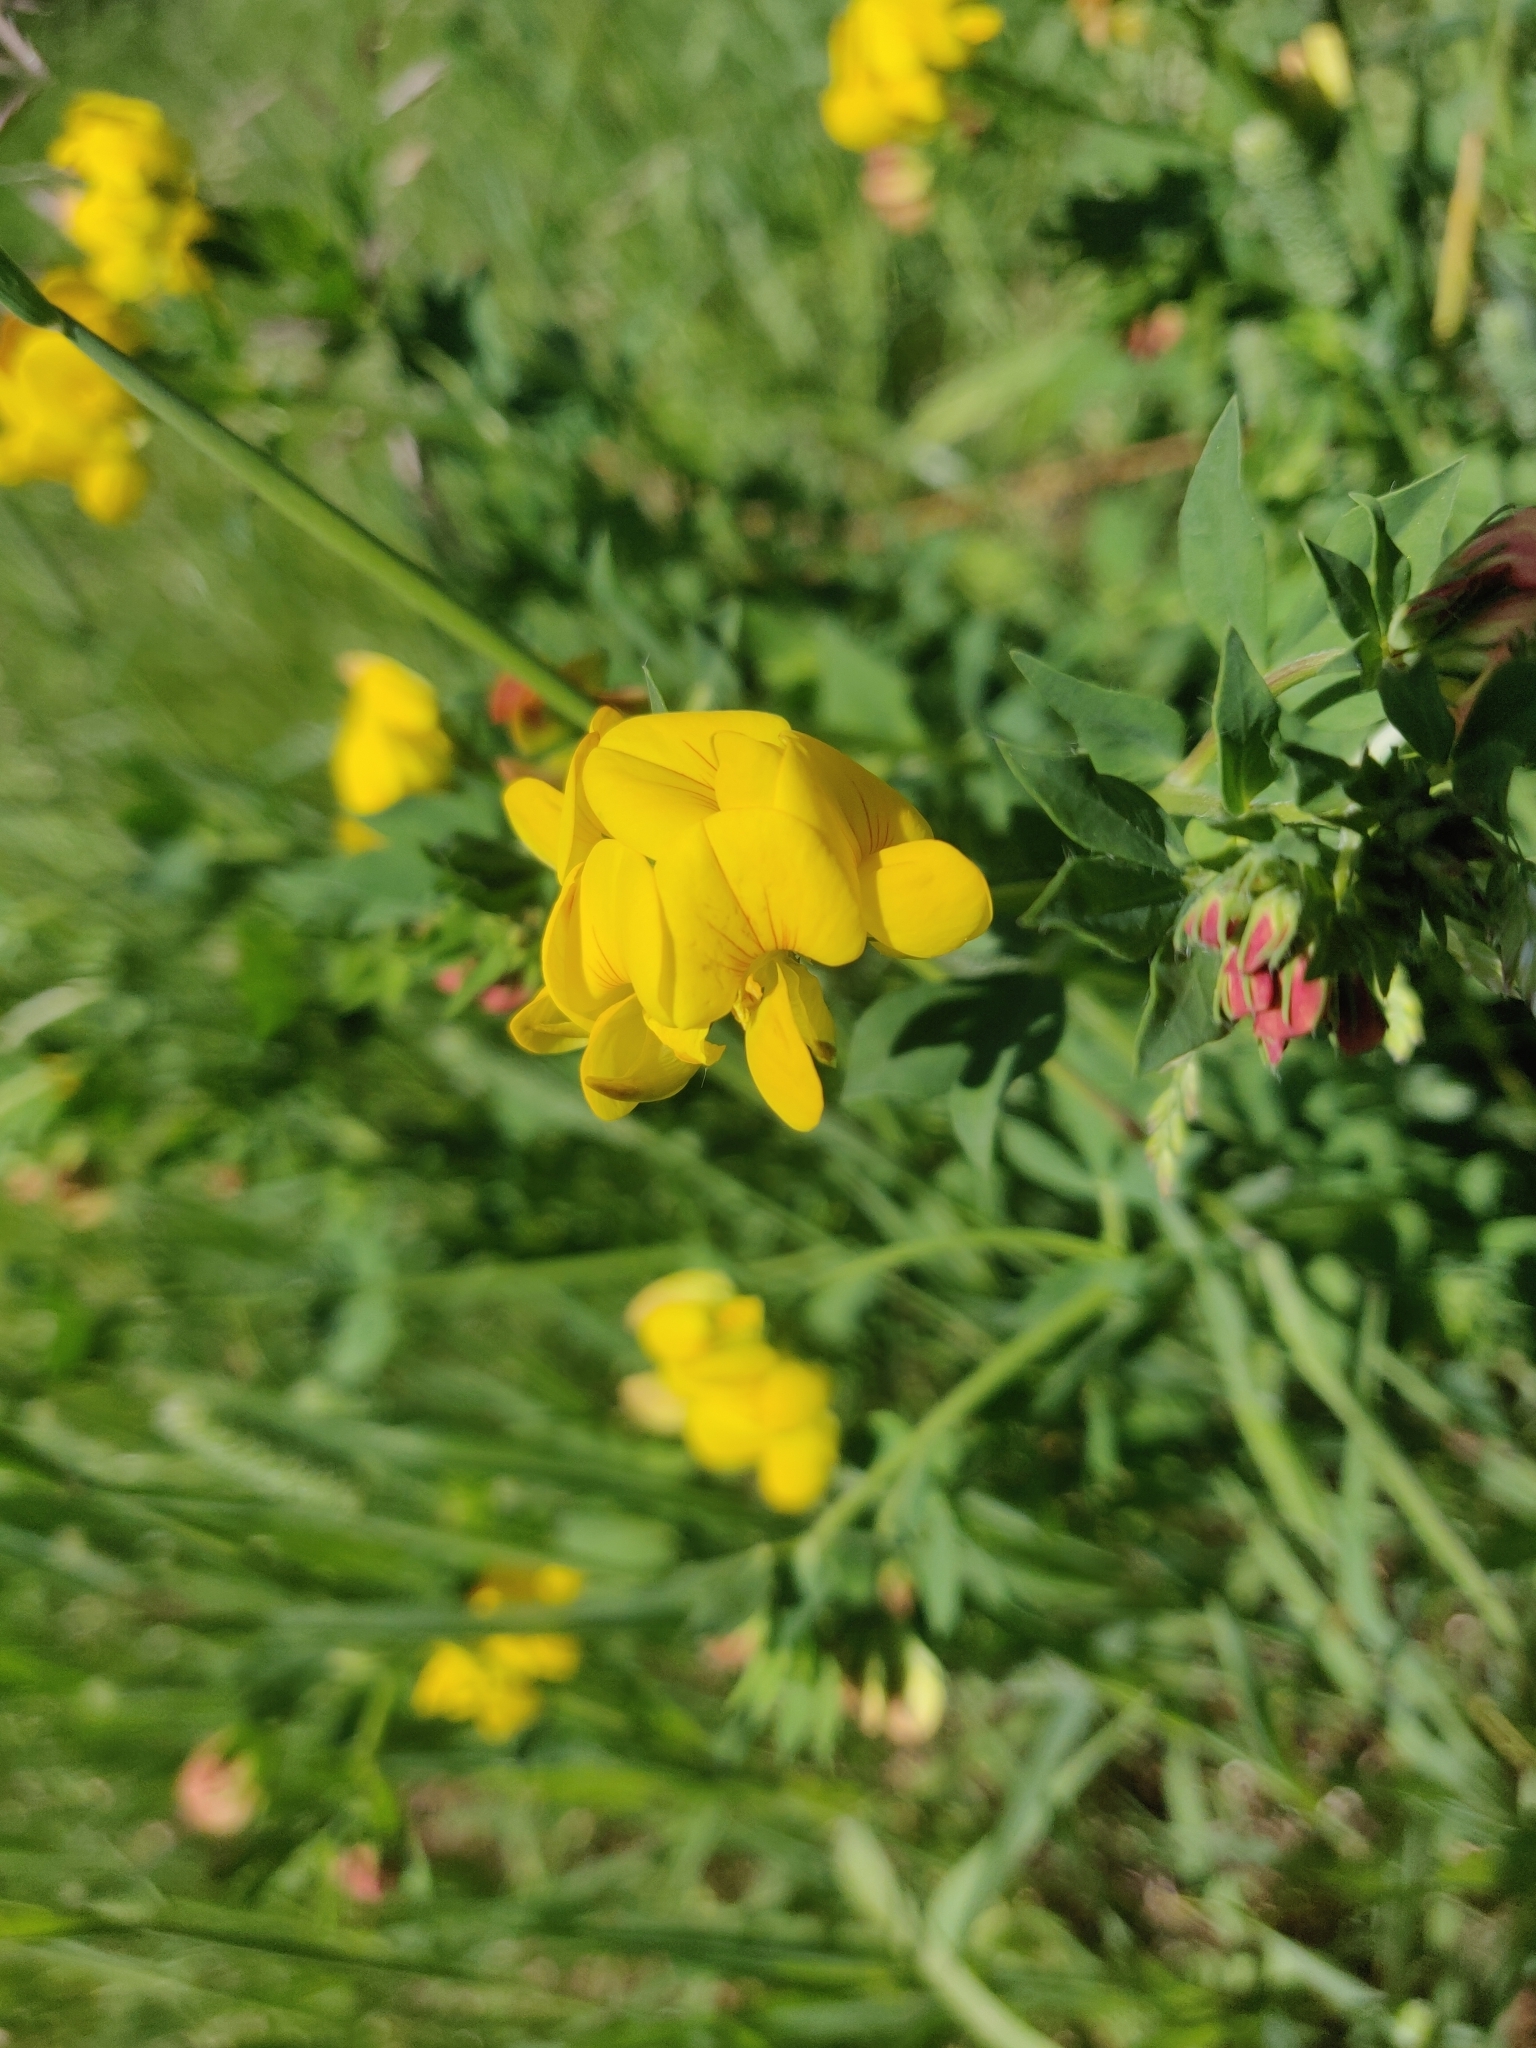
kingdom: Plantae
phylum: Tracheophyta
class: Magnoliopsida
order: Fabales
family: Fabaceae
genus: Lotus
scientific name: Lotus corniculatus
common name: Common bird's-foot-trefoil
